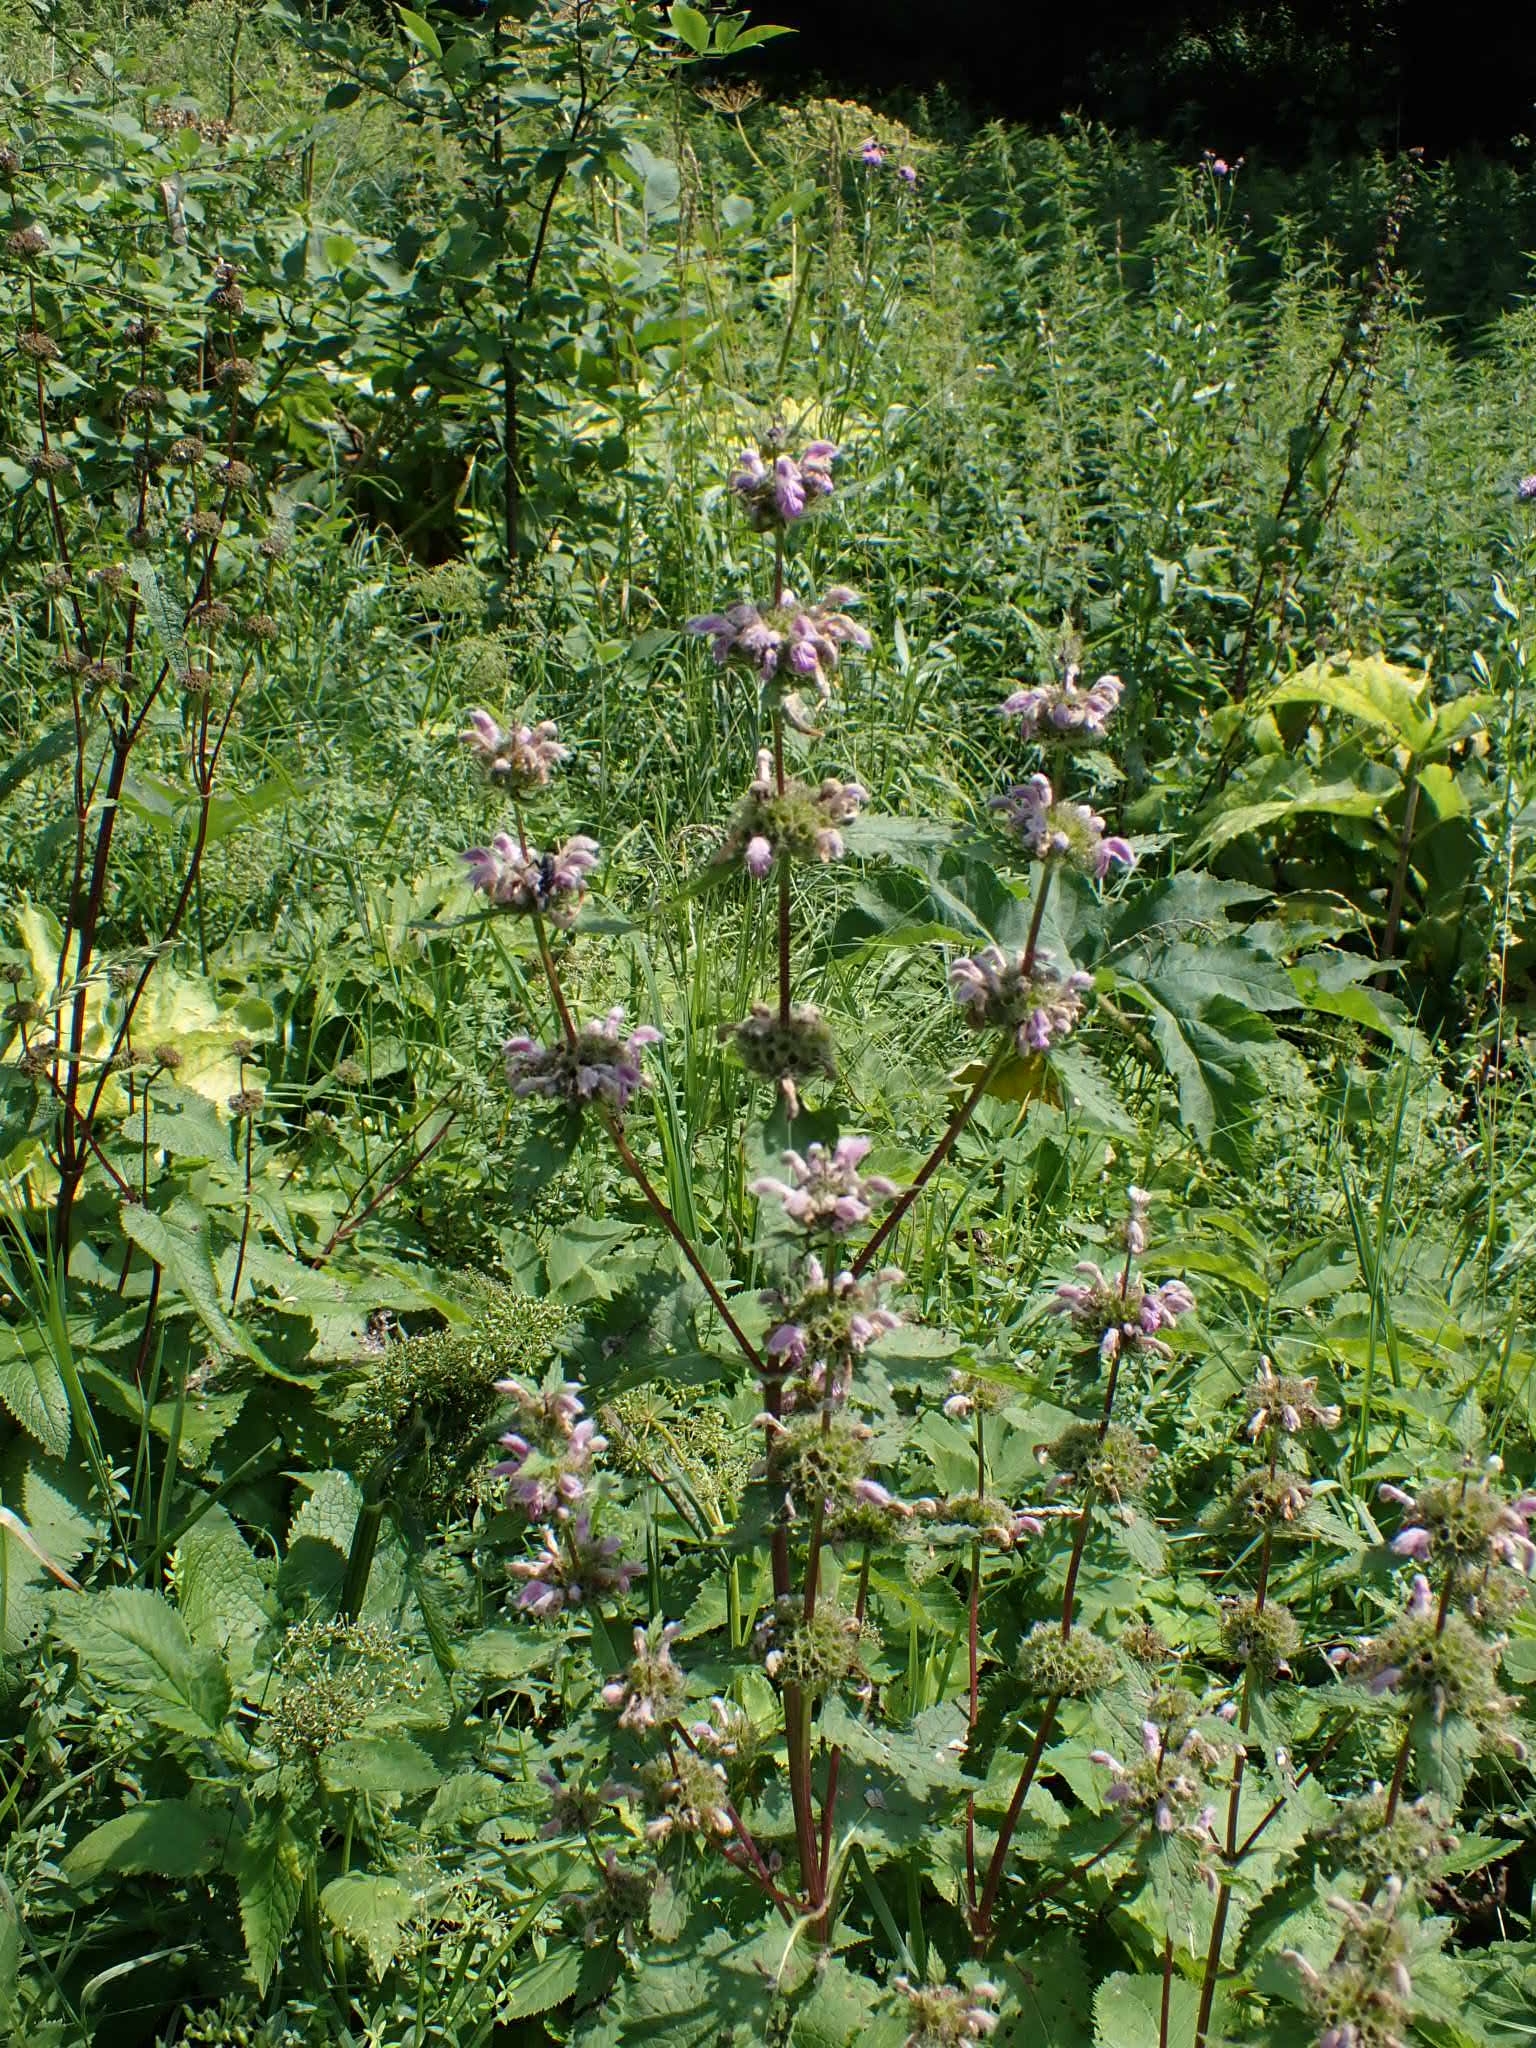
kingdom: Plantae
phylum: Tracheophyta
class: Magnoliopsida
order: Lamiales
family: Lamiaceae
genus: Phlomoides
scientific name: Phlomoides tuberosa
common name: Tuberous jerusalem sage
